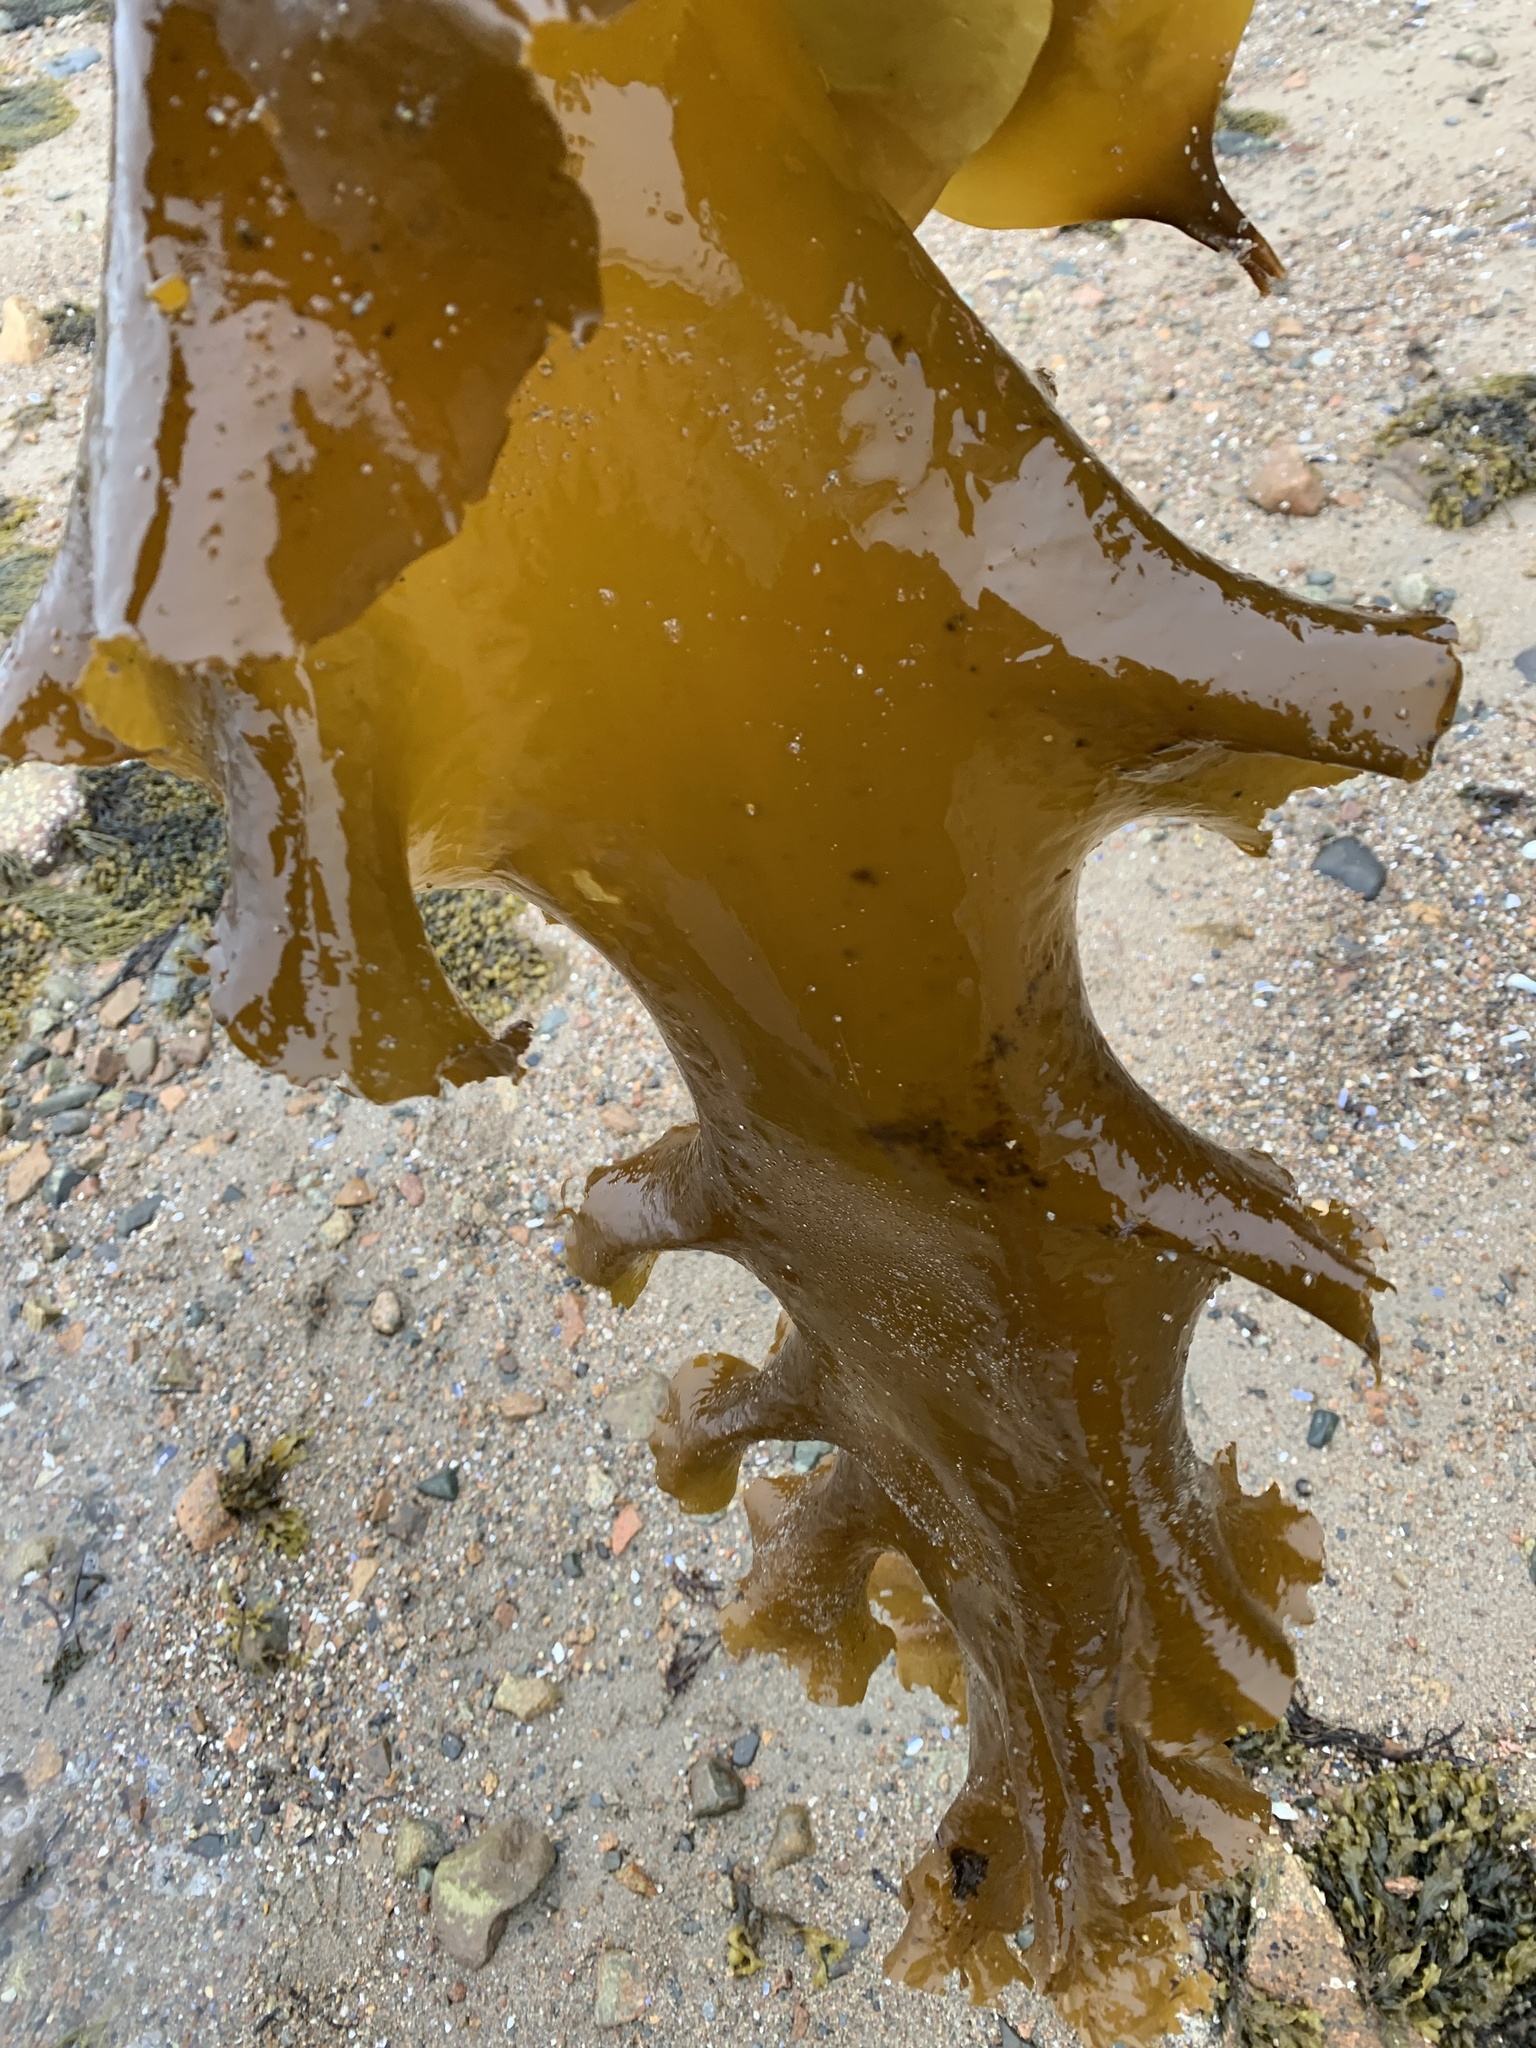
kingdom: Chromista
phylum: Ochrophyta
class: Phaeophyceae
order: Laminariales
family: Laminariaceae
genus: Saccharina
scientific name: Saccharina latissima
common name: Poor man's weather glass
